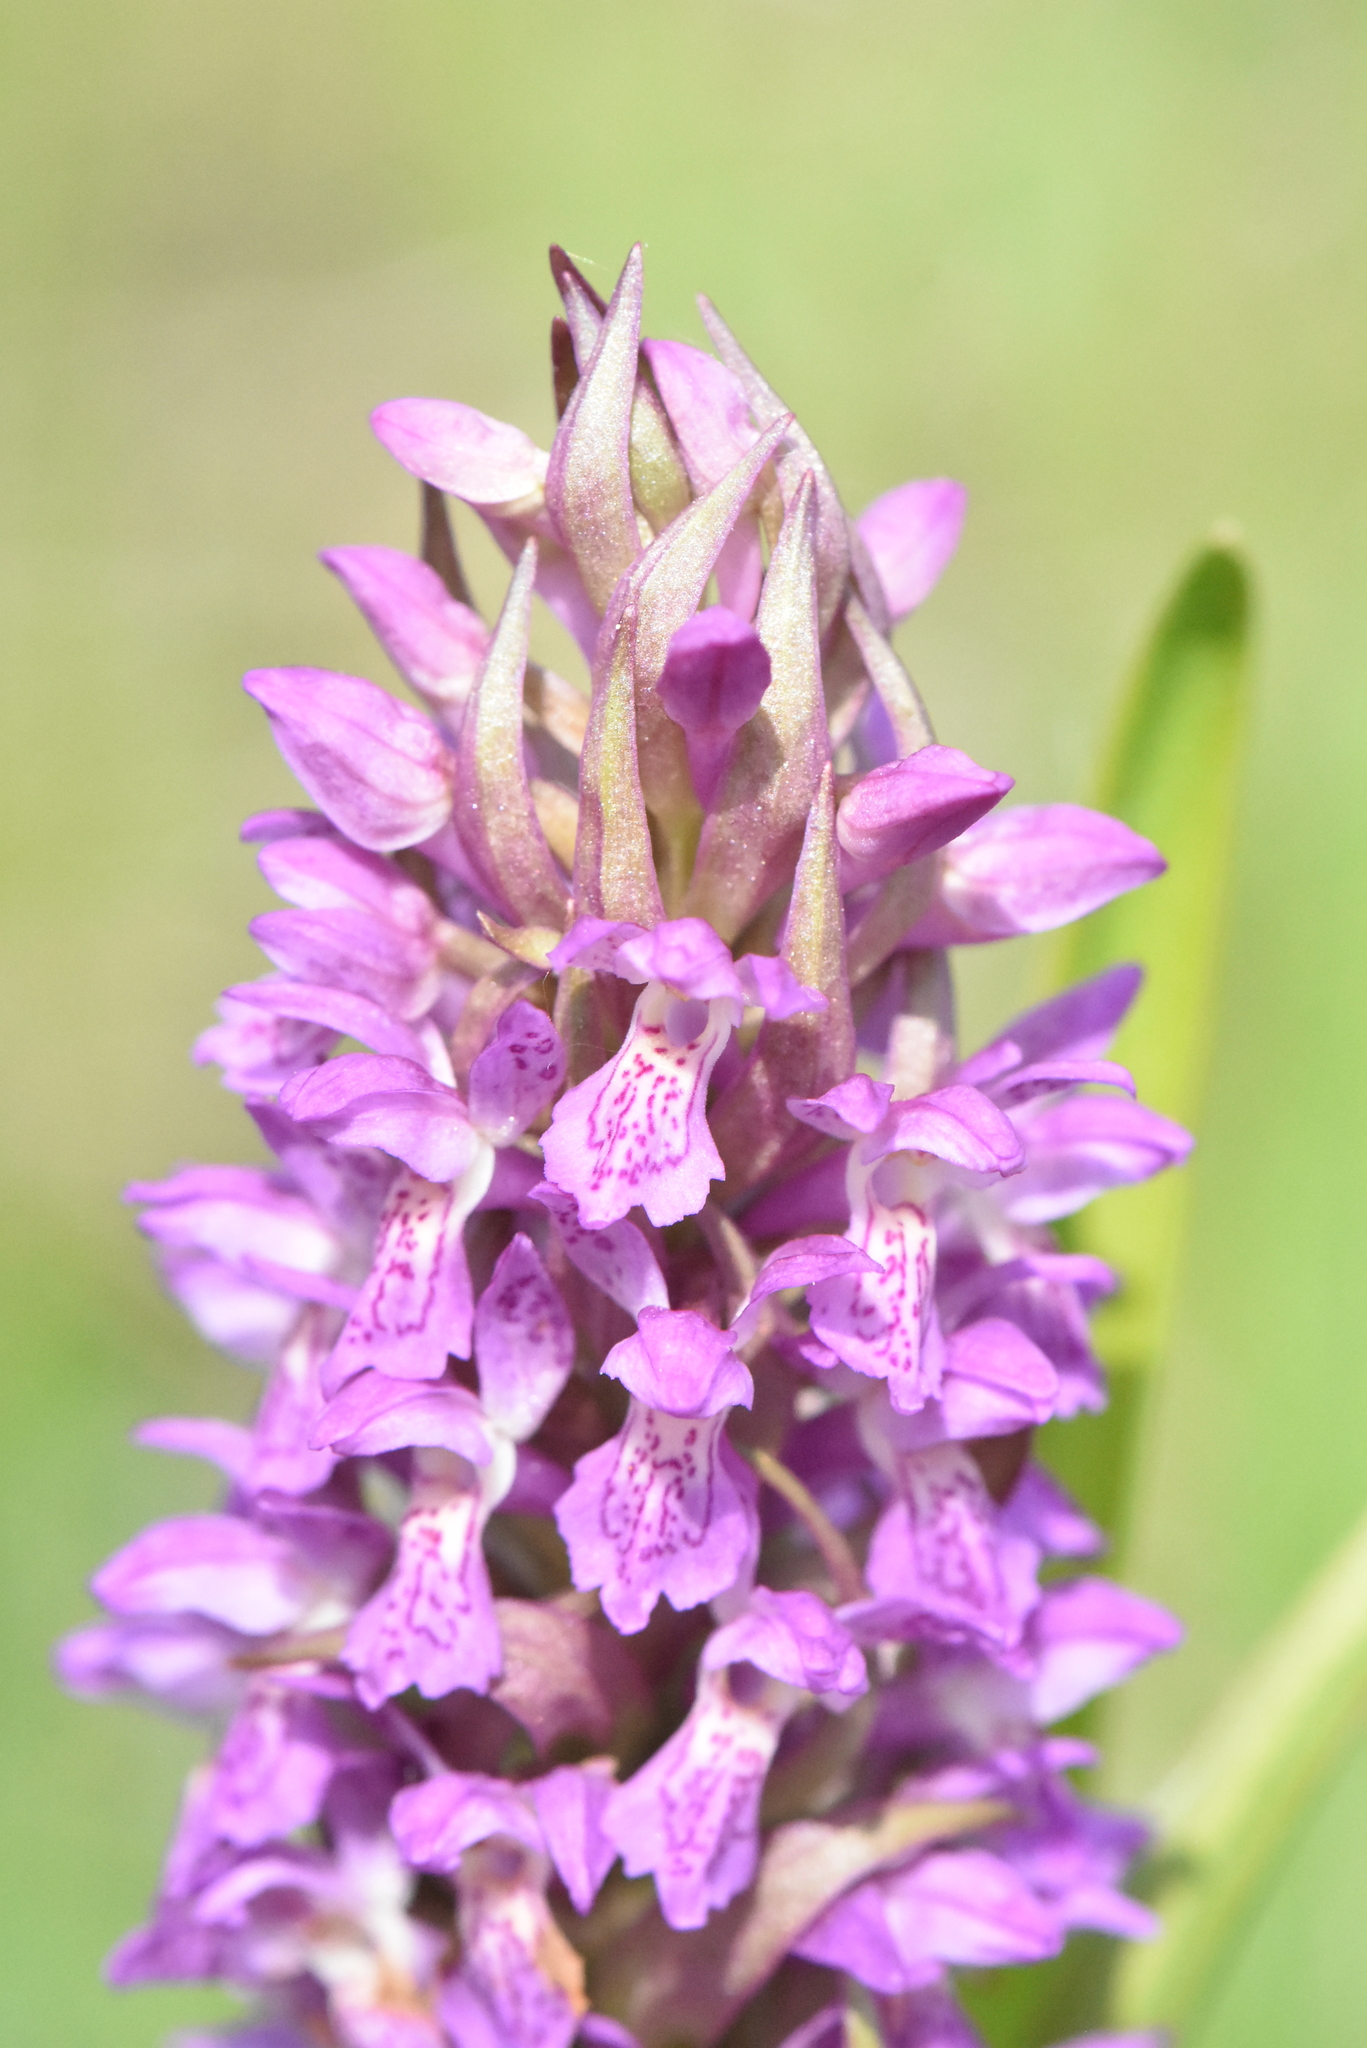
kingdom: Plantae
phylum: Tracheophyta
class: Liliopsida
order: Asparagales
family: Orchidaceae
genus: Dactylorhiza
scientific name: Dactylorhiza incarnata
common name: Early marsh-orchid
